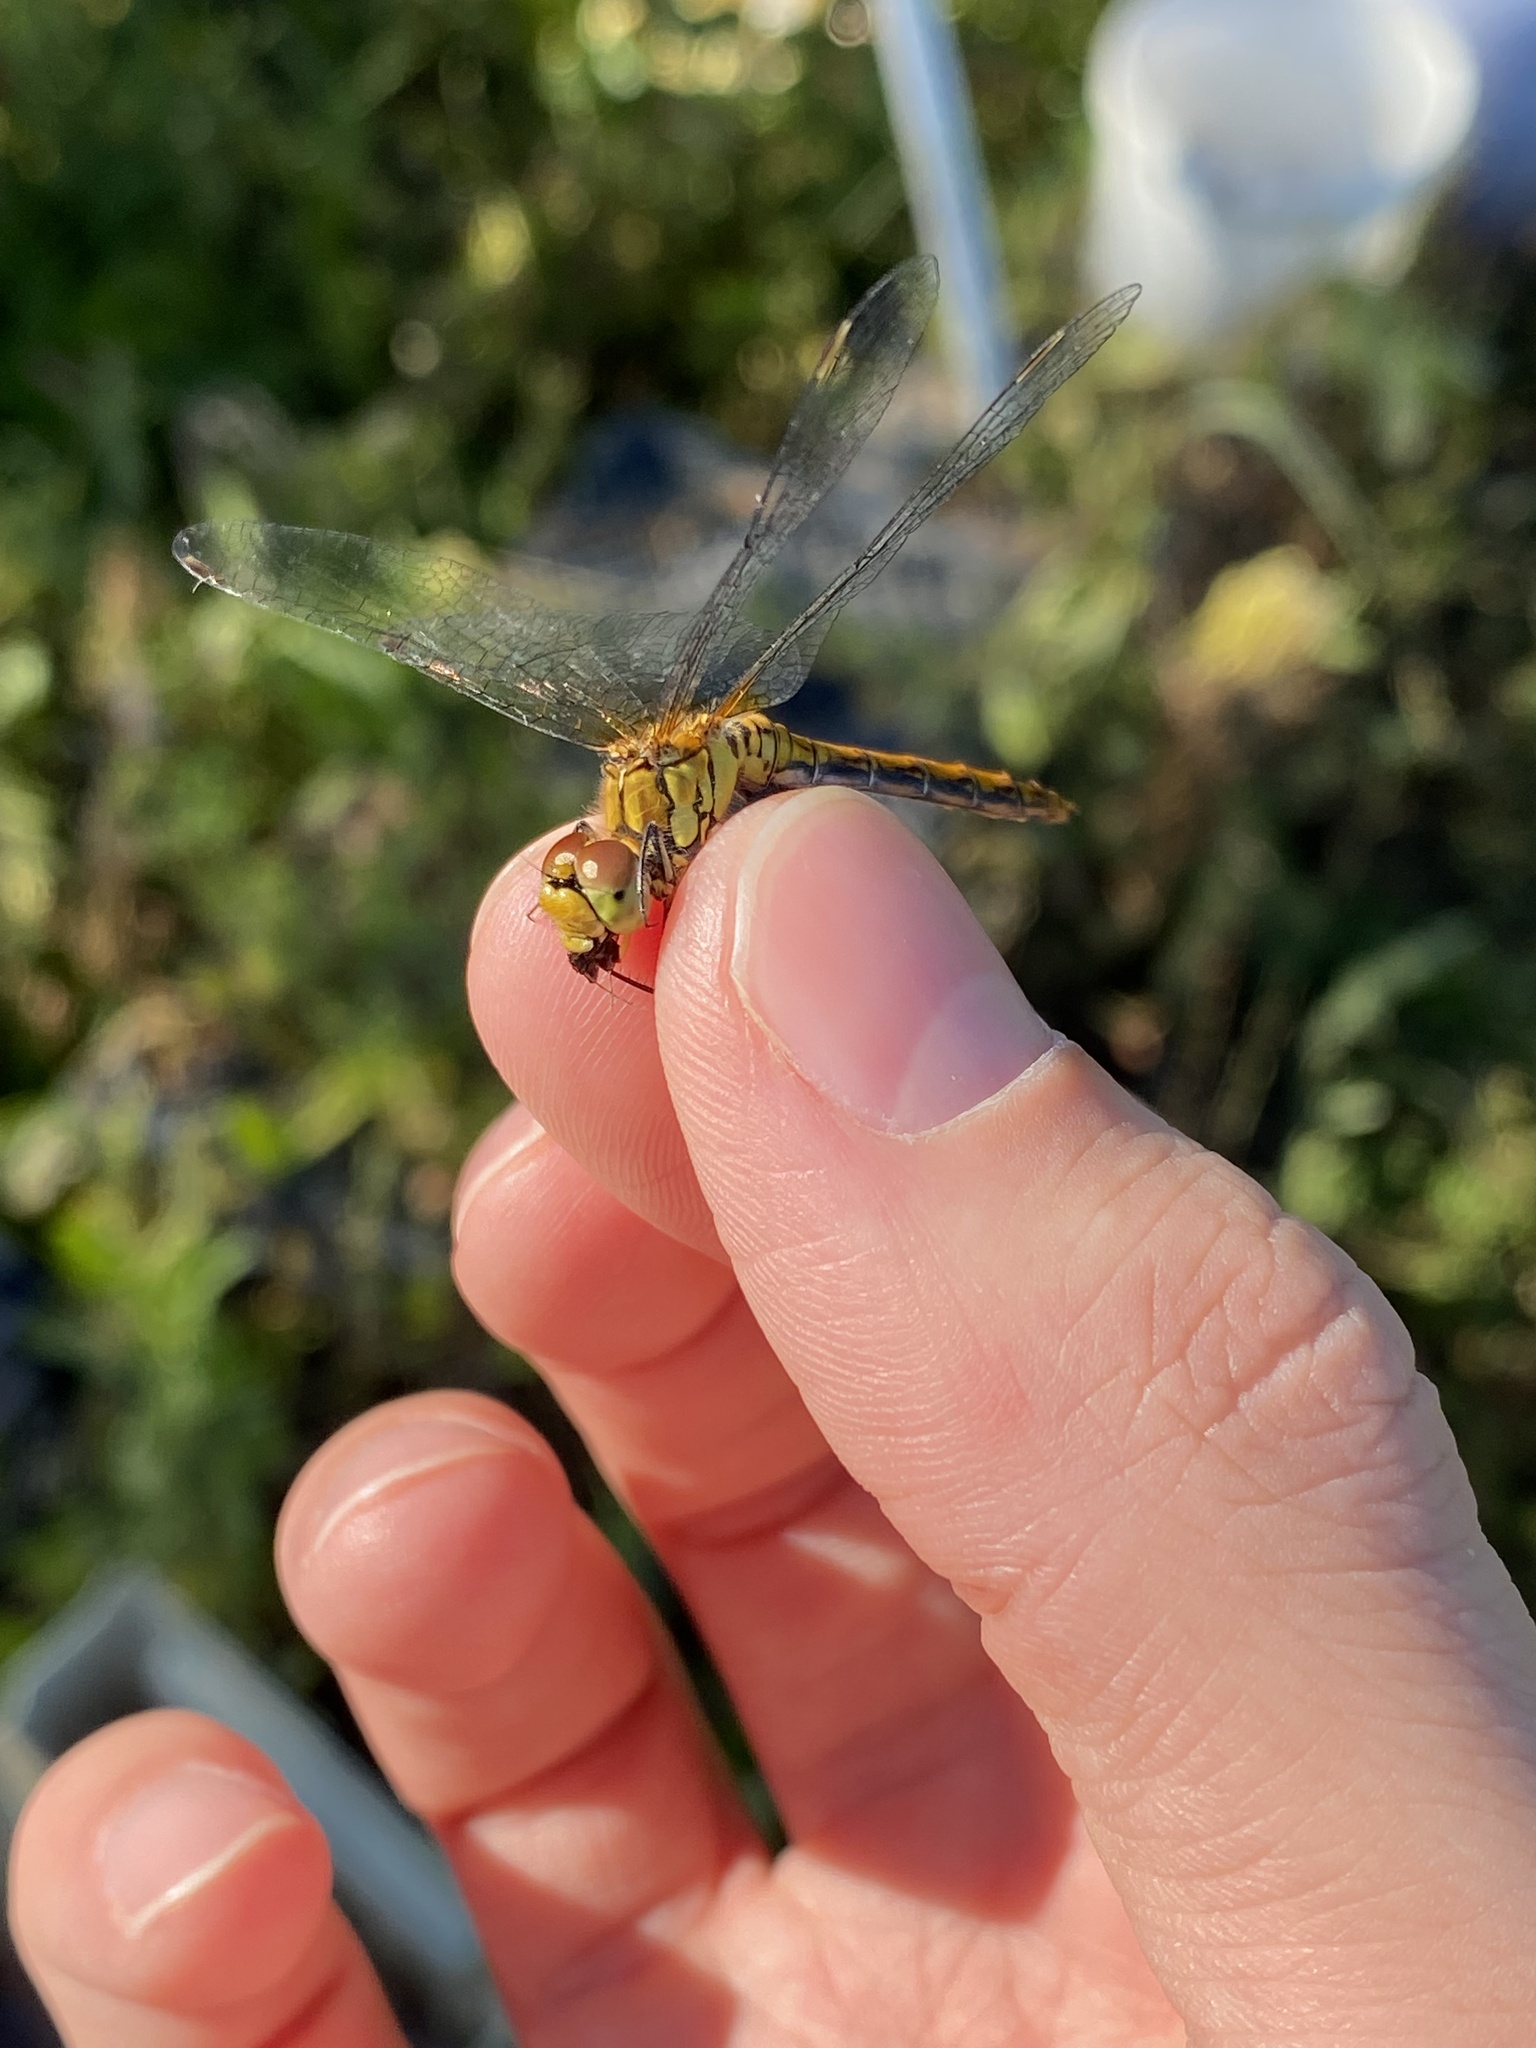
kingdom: Animalia
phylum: Arthropoda
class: Insecta
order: Odonata
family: Libellulidae
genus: Sympetrum
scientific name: Sympetrum sanguineum
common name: Ruddy darter
